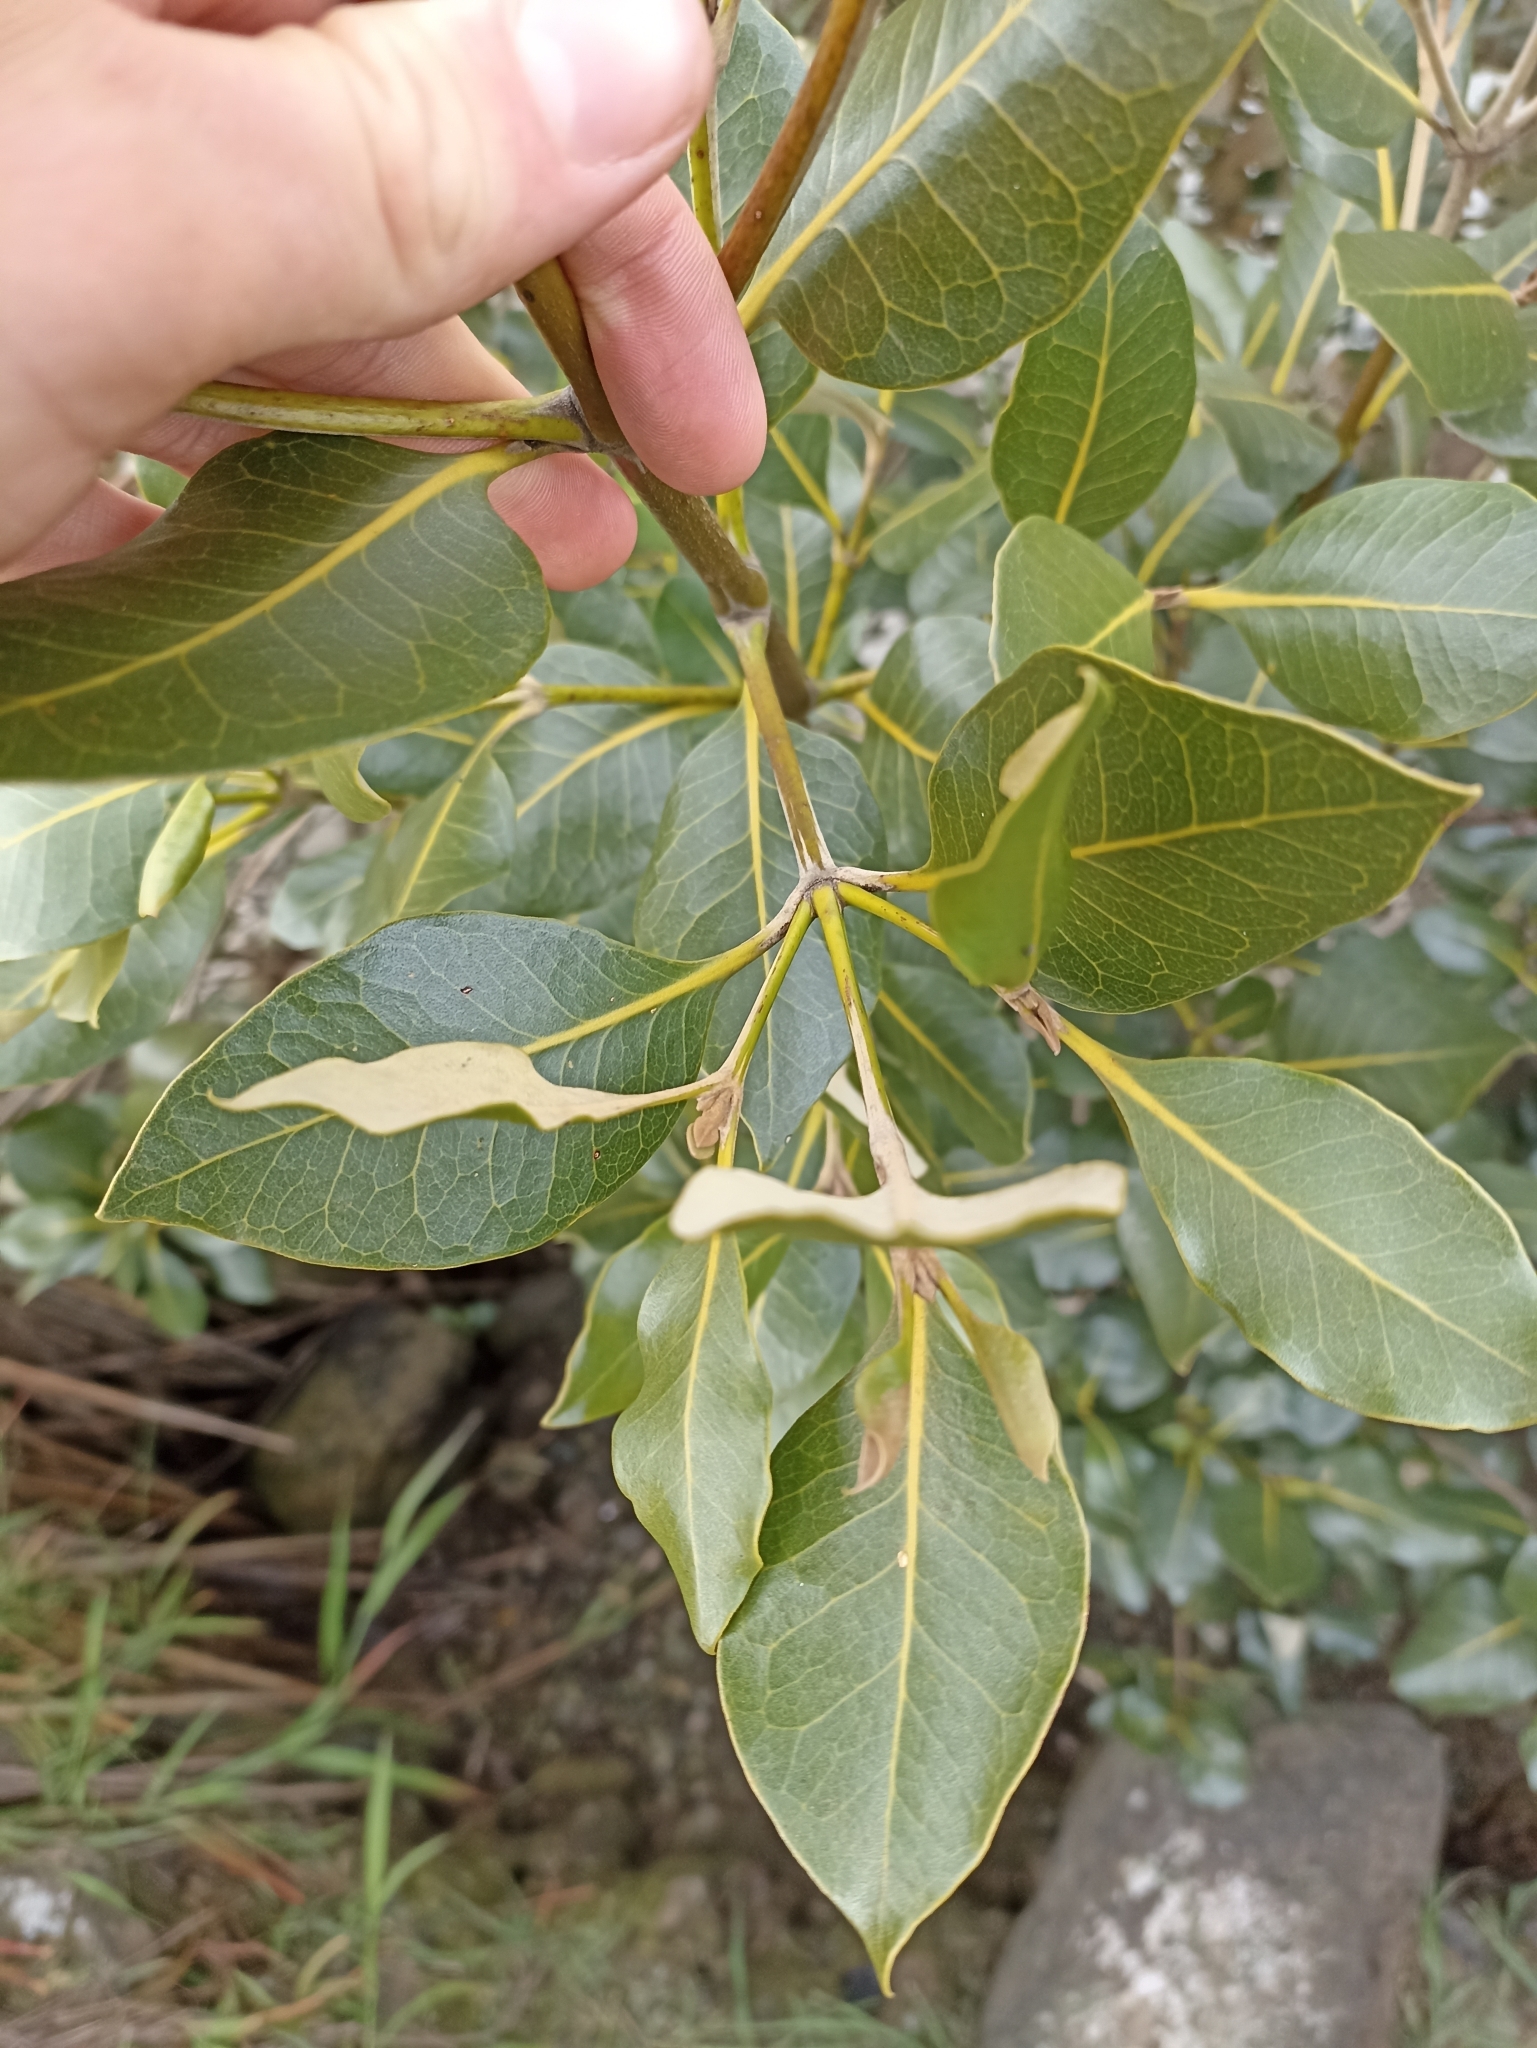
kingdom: Plantae
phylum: Tracheophyta
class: Magnoliopsida
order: Lamiales
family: Acanthaceae
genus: Avicennia
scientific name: Avicennia marina
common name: Gray mangrove
